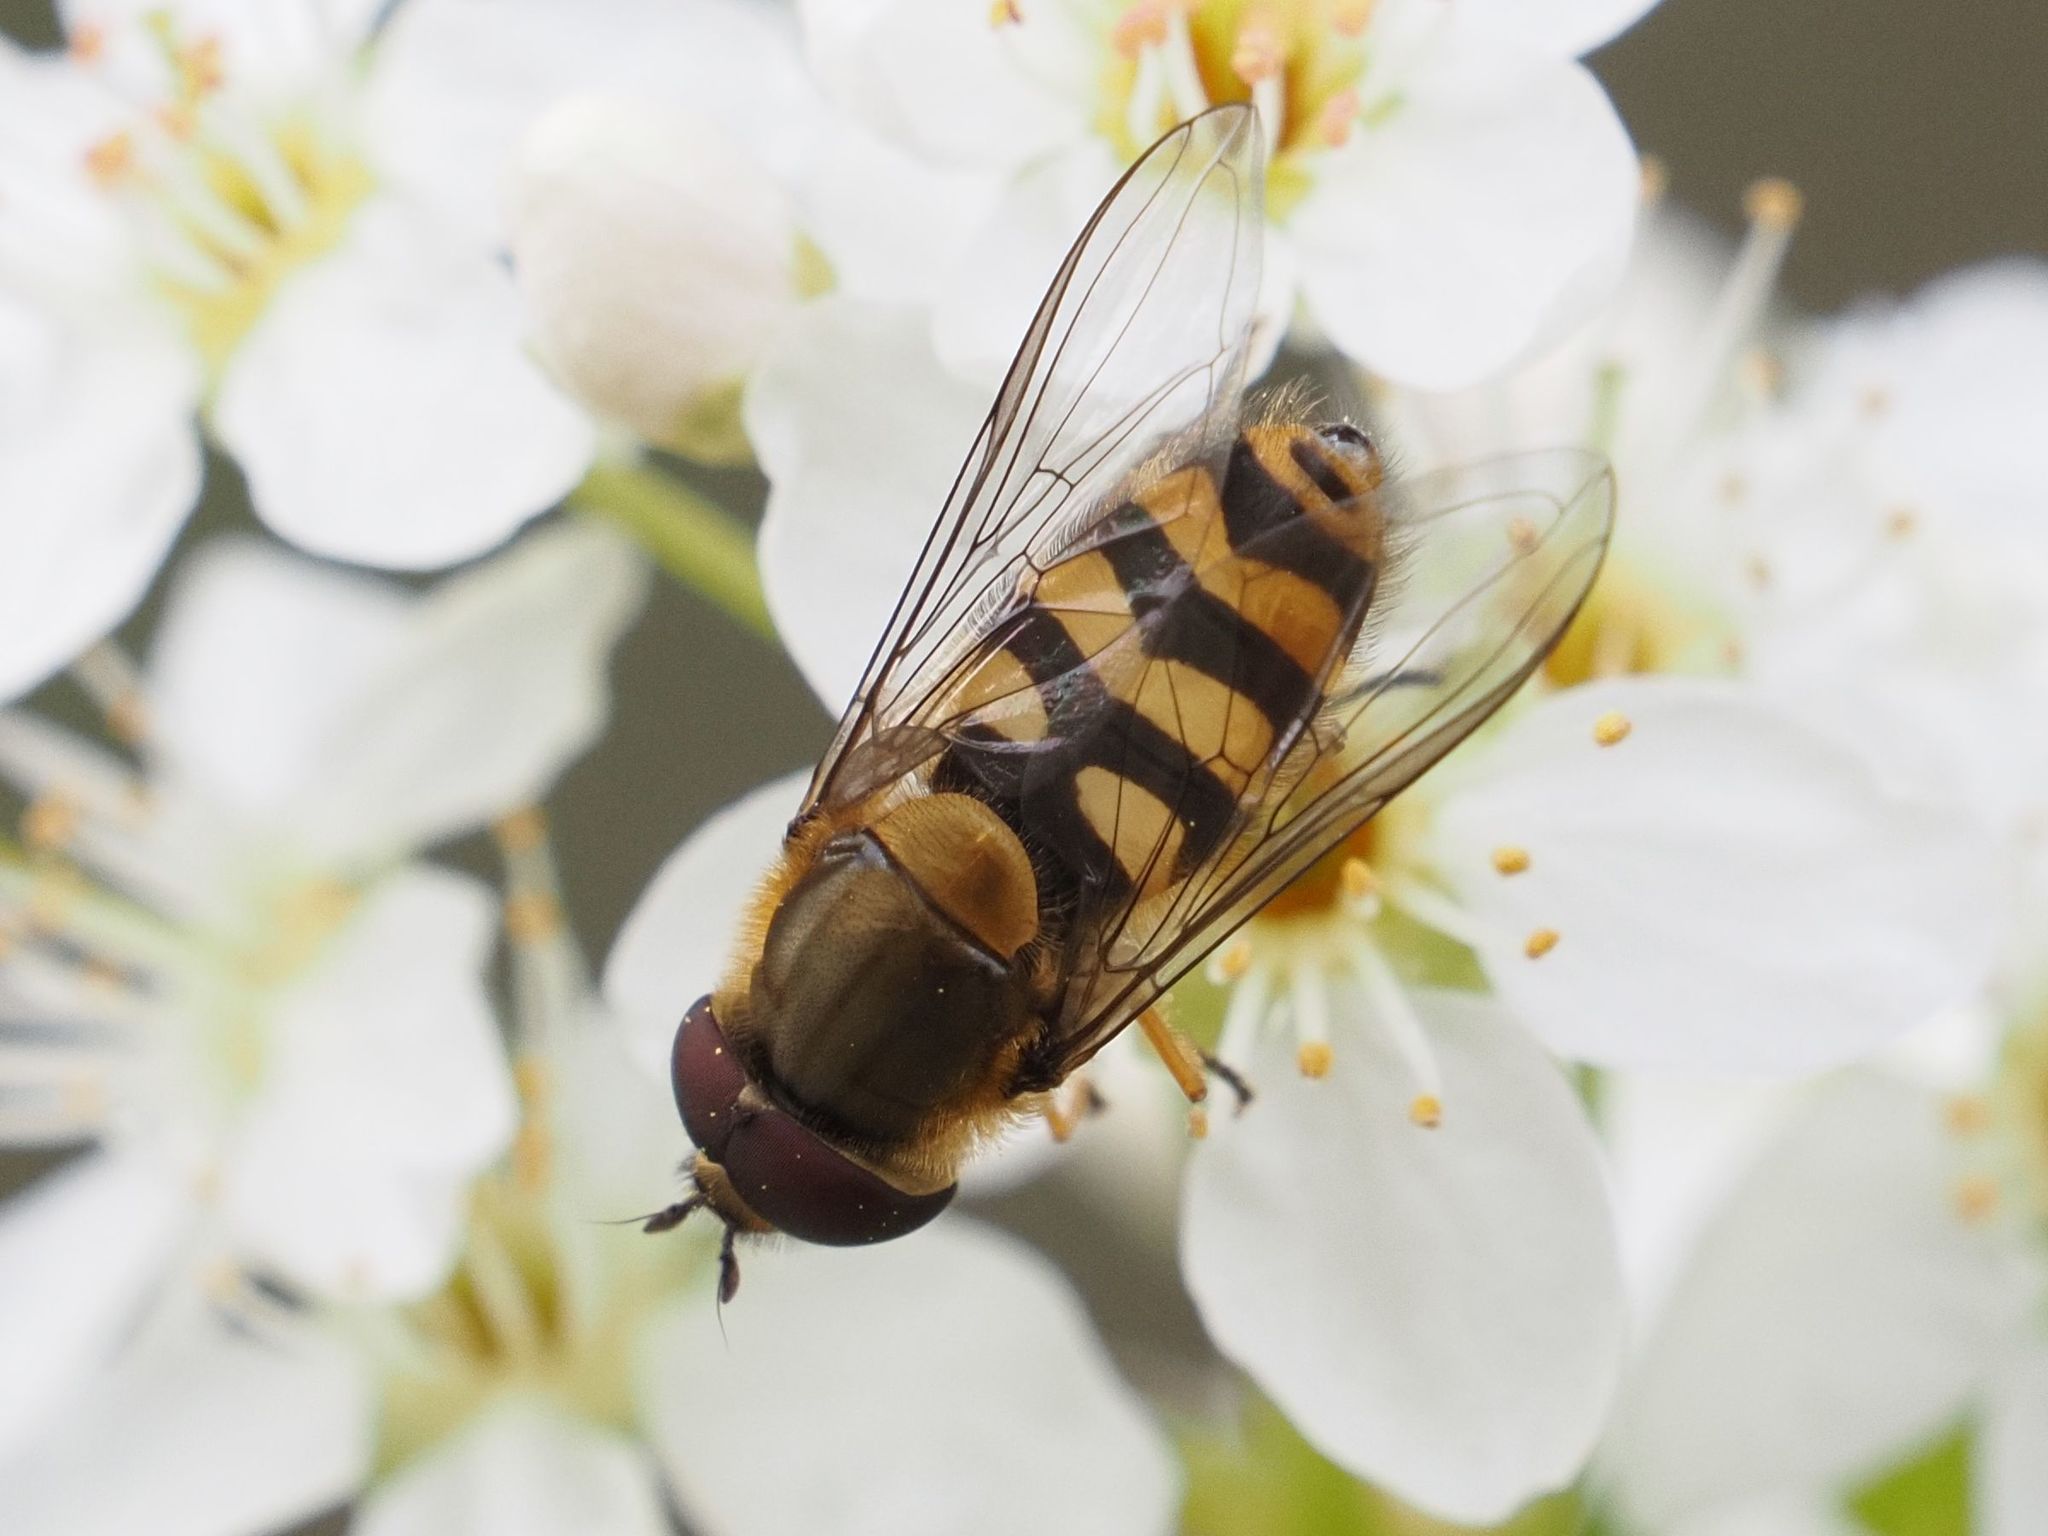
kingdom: Animalia
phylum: Arthropoda
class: Insecta
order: Diptera
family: Syrphidae
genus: Syrphus
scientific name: Syrphus
